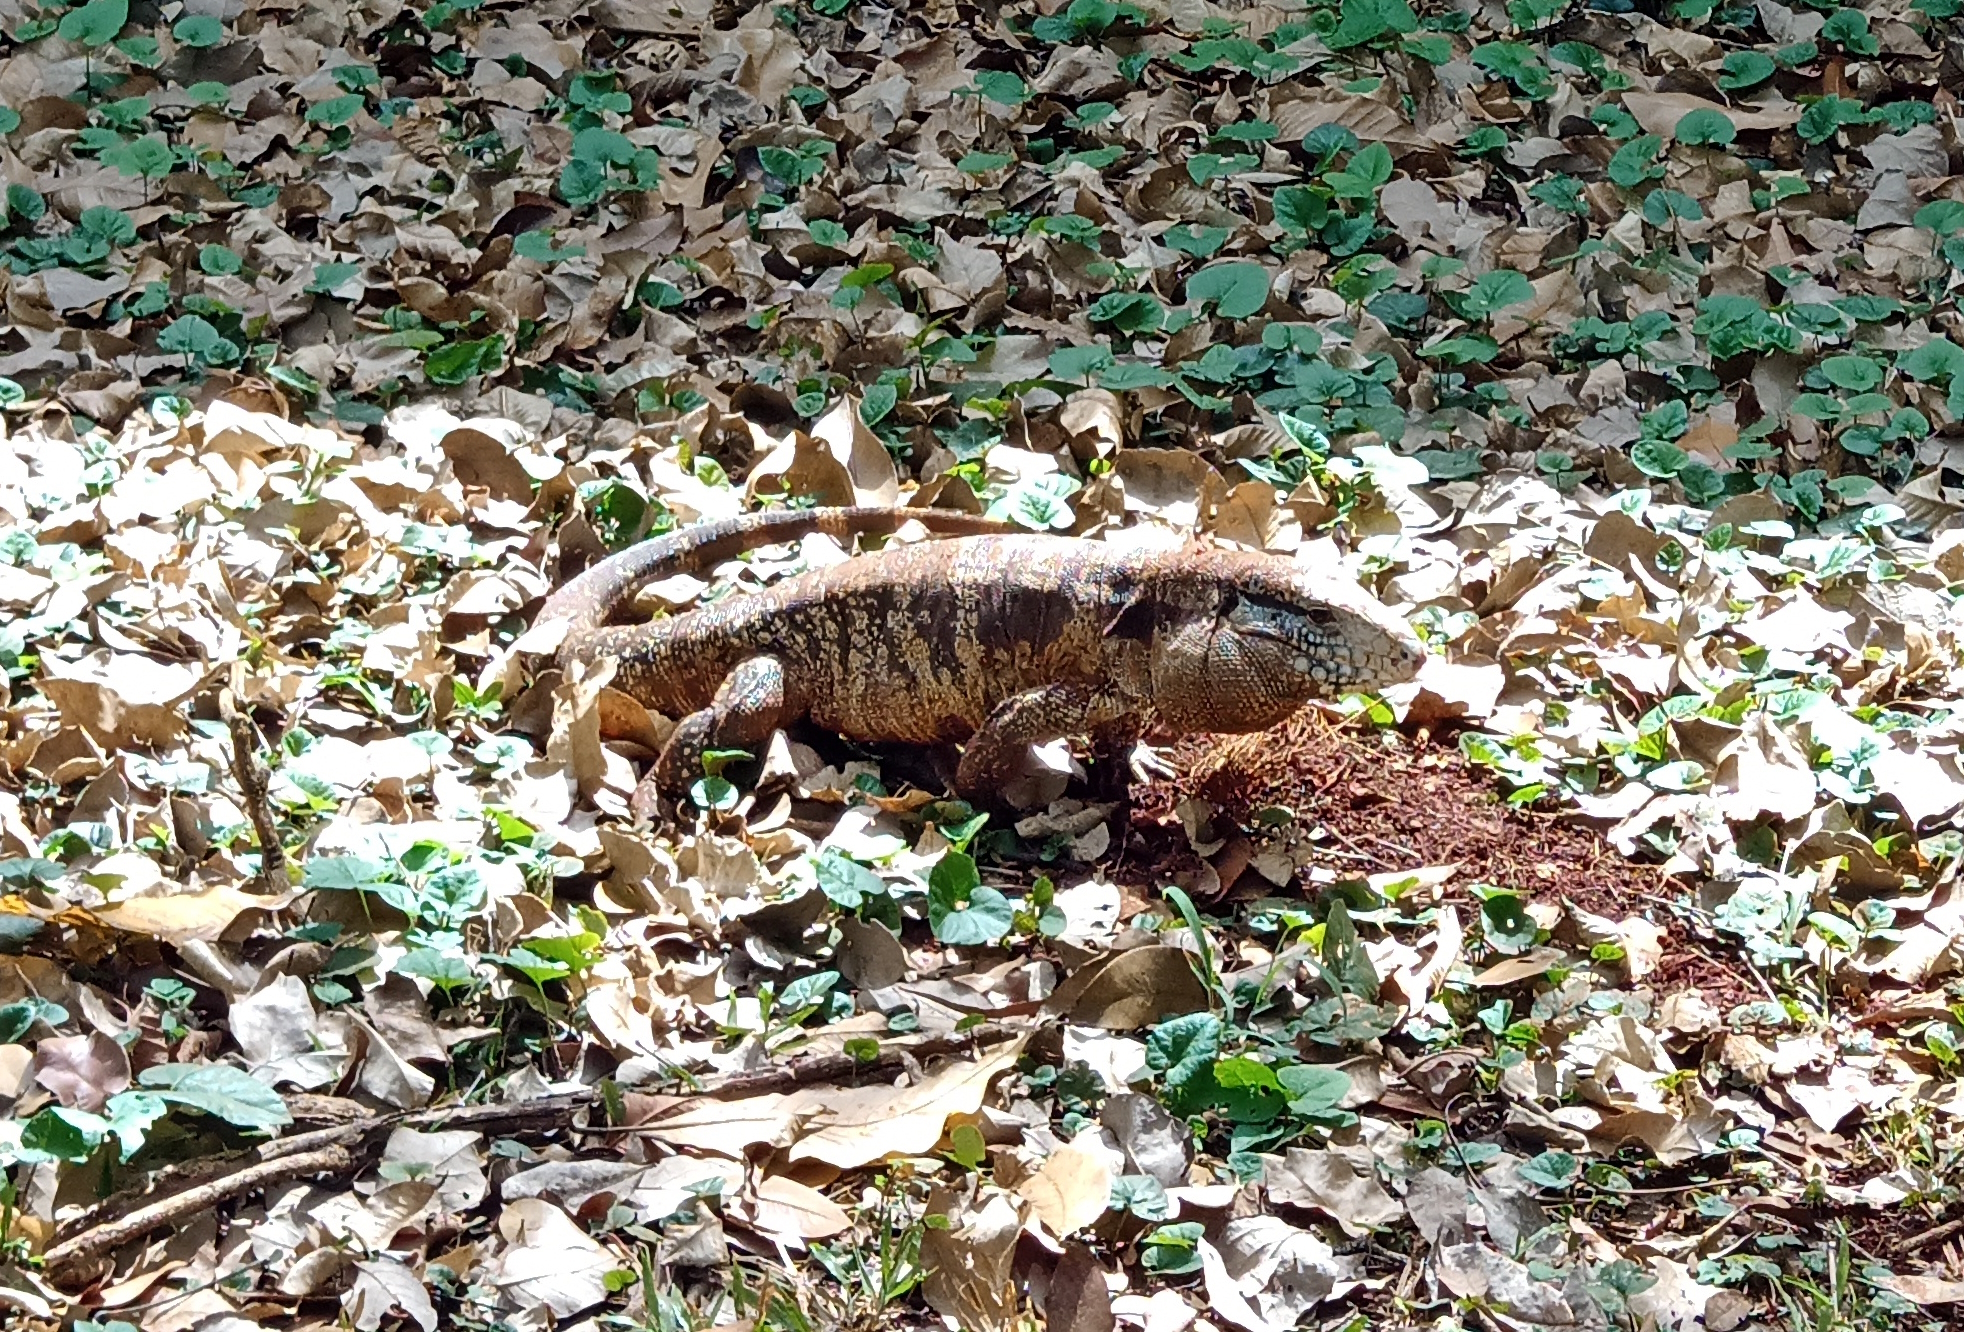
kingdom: Animalia
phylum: Chordata
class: Squamata
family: Teiidae
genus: Salvator
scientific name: Salvator merianae
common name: Argentine black and white tegu
